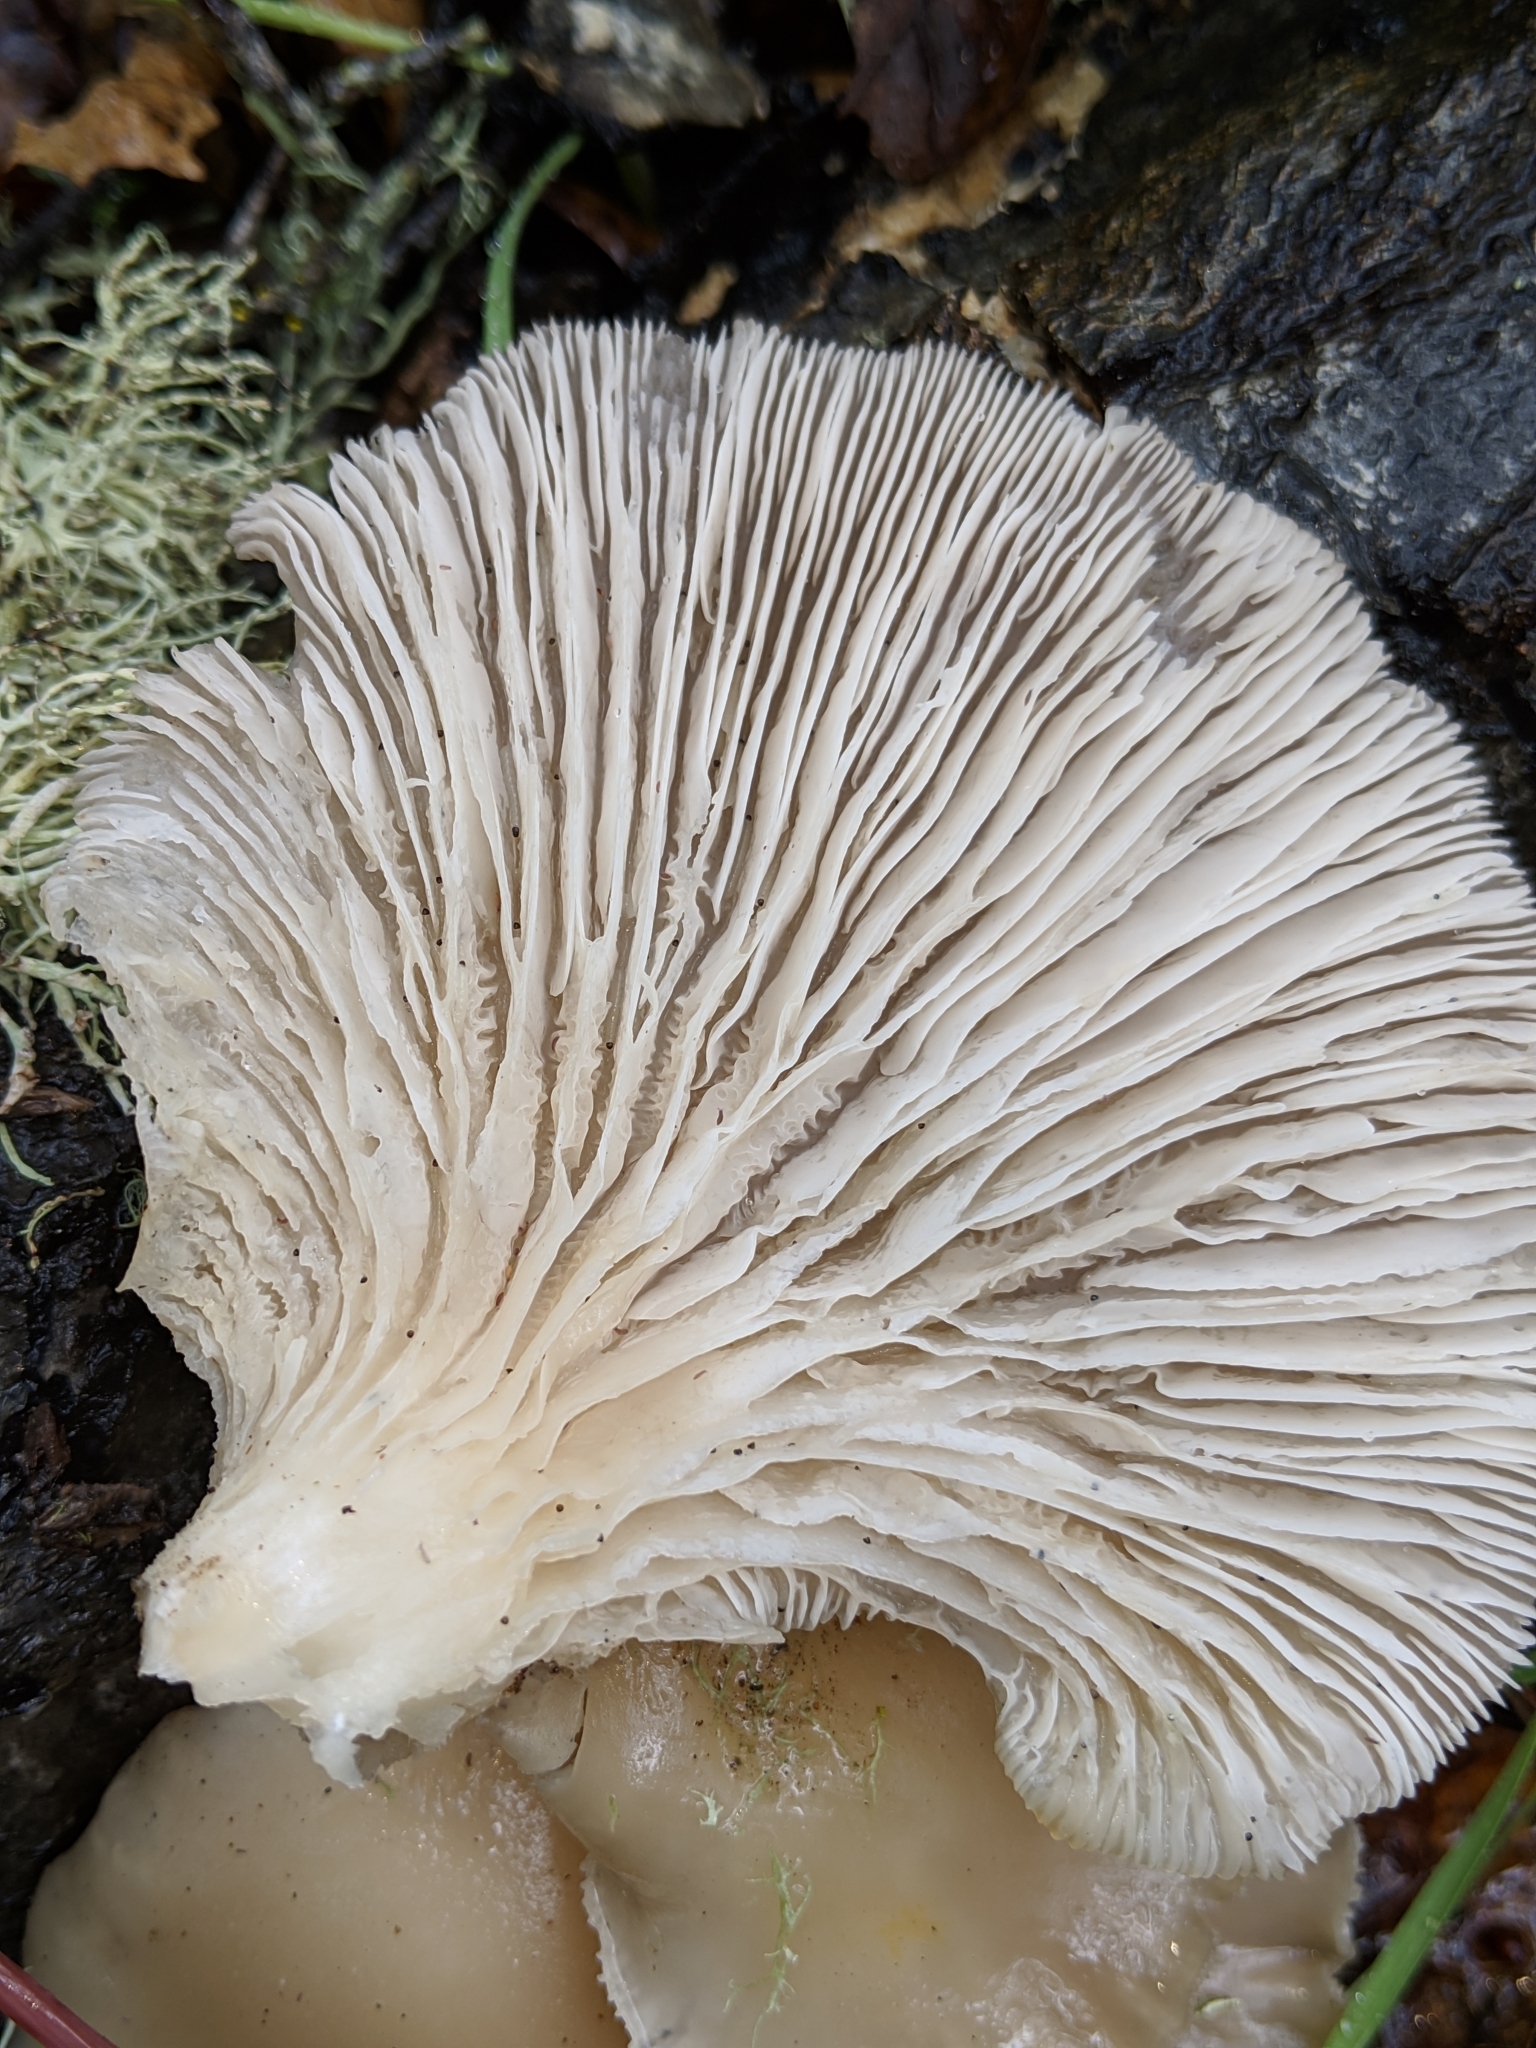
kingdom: Fungi
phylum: Basidiomycota
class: Agaricomycetes
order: Agaricales
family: Pleurotaceae
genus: Pleurotus
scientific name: Pleurotus ostreatus
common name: Oyster mushroom
